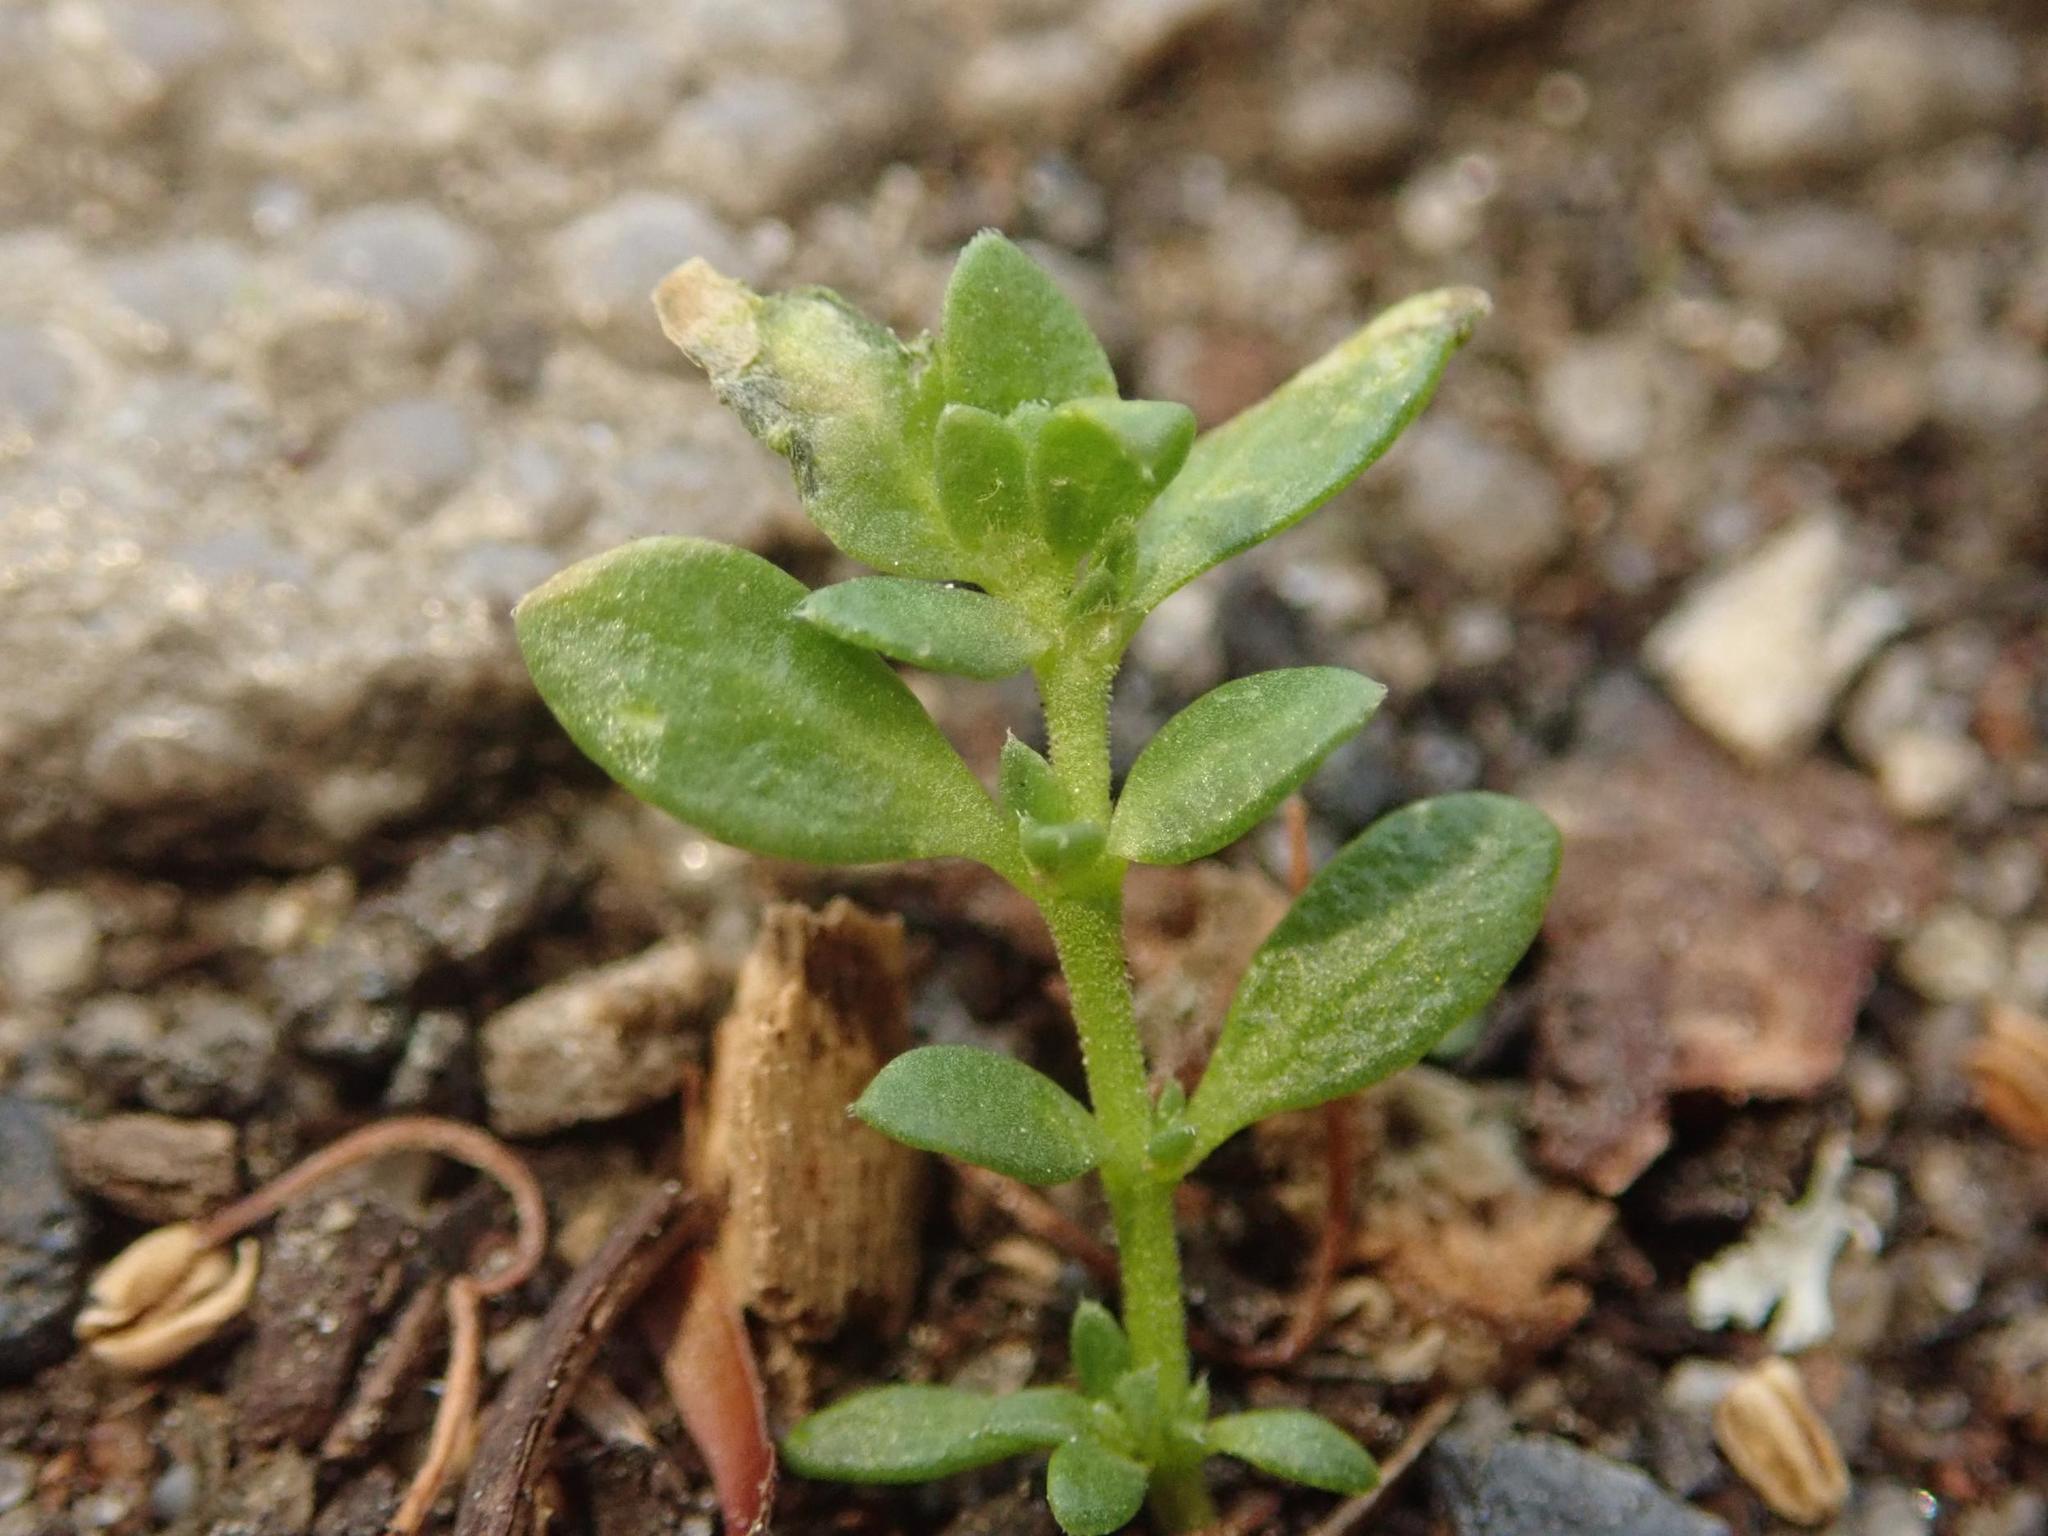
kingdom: Plantae
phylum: Tracheophyta
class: Magnoliopsida
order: Caryophyllales
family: Caryophyllaceae
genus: Herniaria
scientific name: Herniaria glabra
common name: Smooth rupturewort
